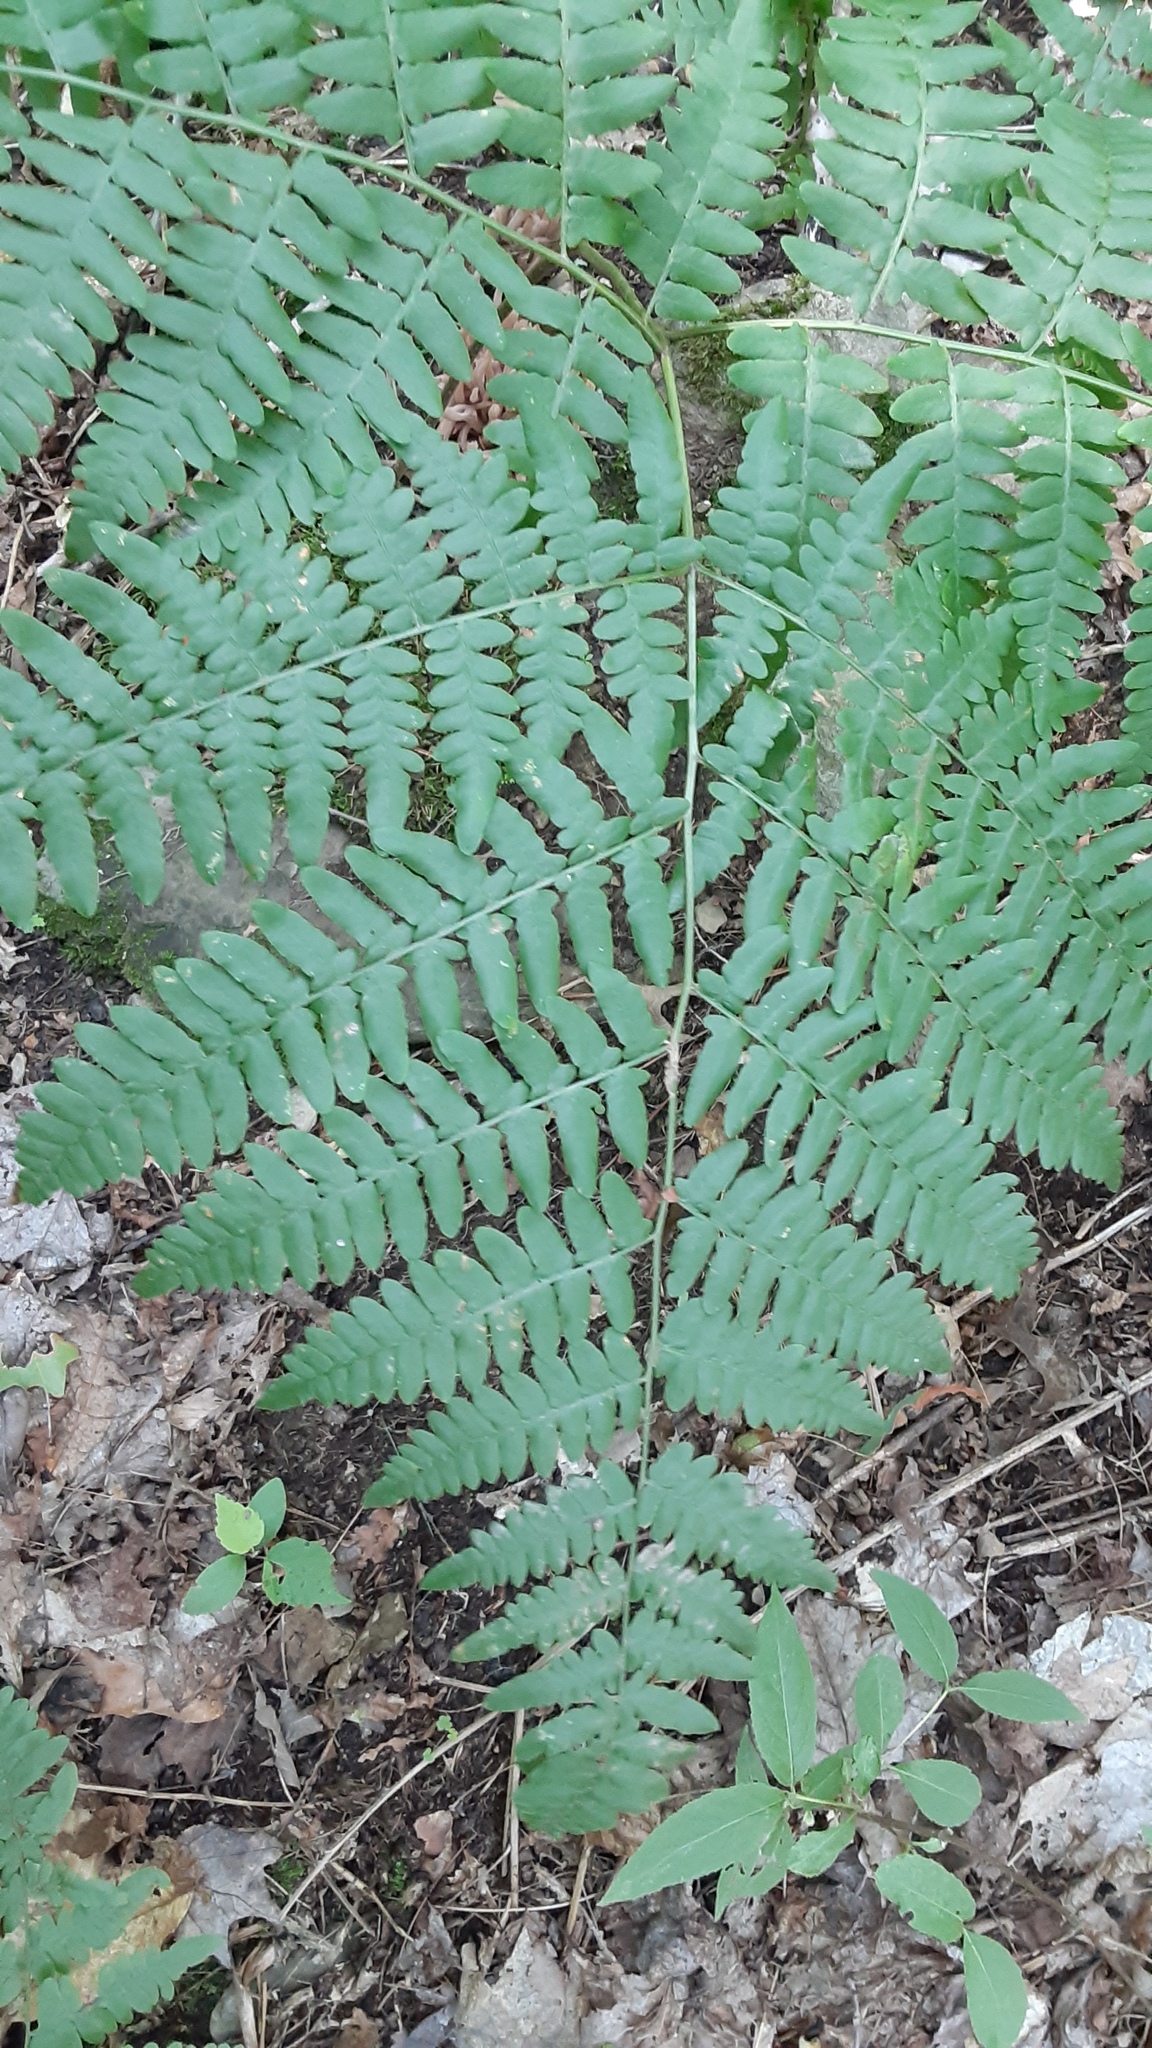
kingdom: Plantae
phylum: Tracheophyta
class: Polypodiopsida
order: Polypodiales
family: Dennstaedtiaceae
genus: Pteridium
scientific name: Pteridium aquilinum
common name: Bracken
